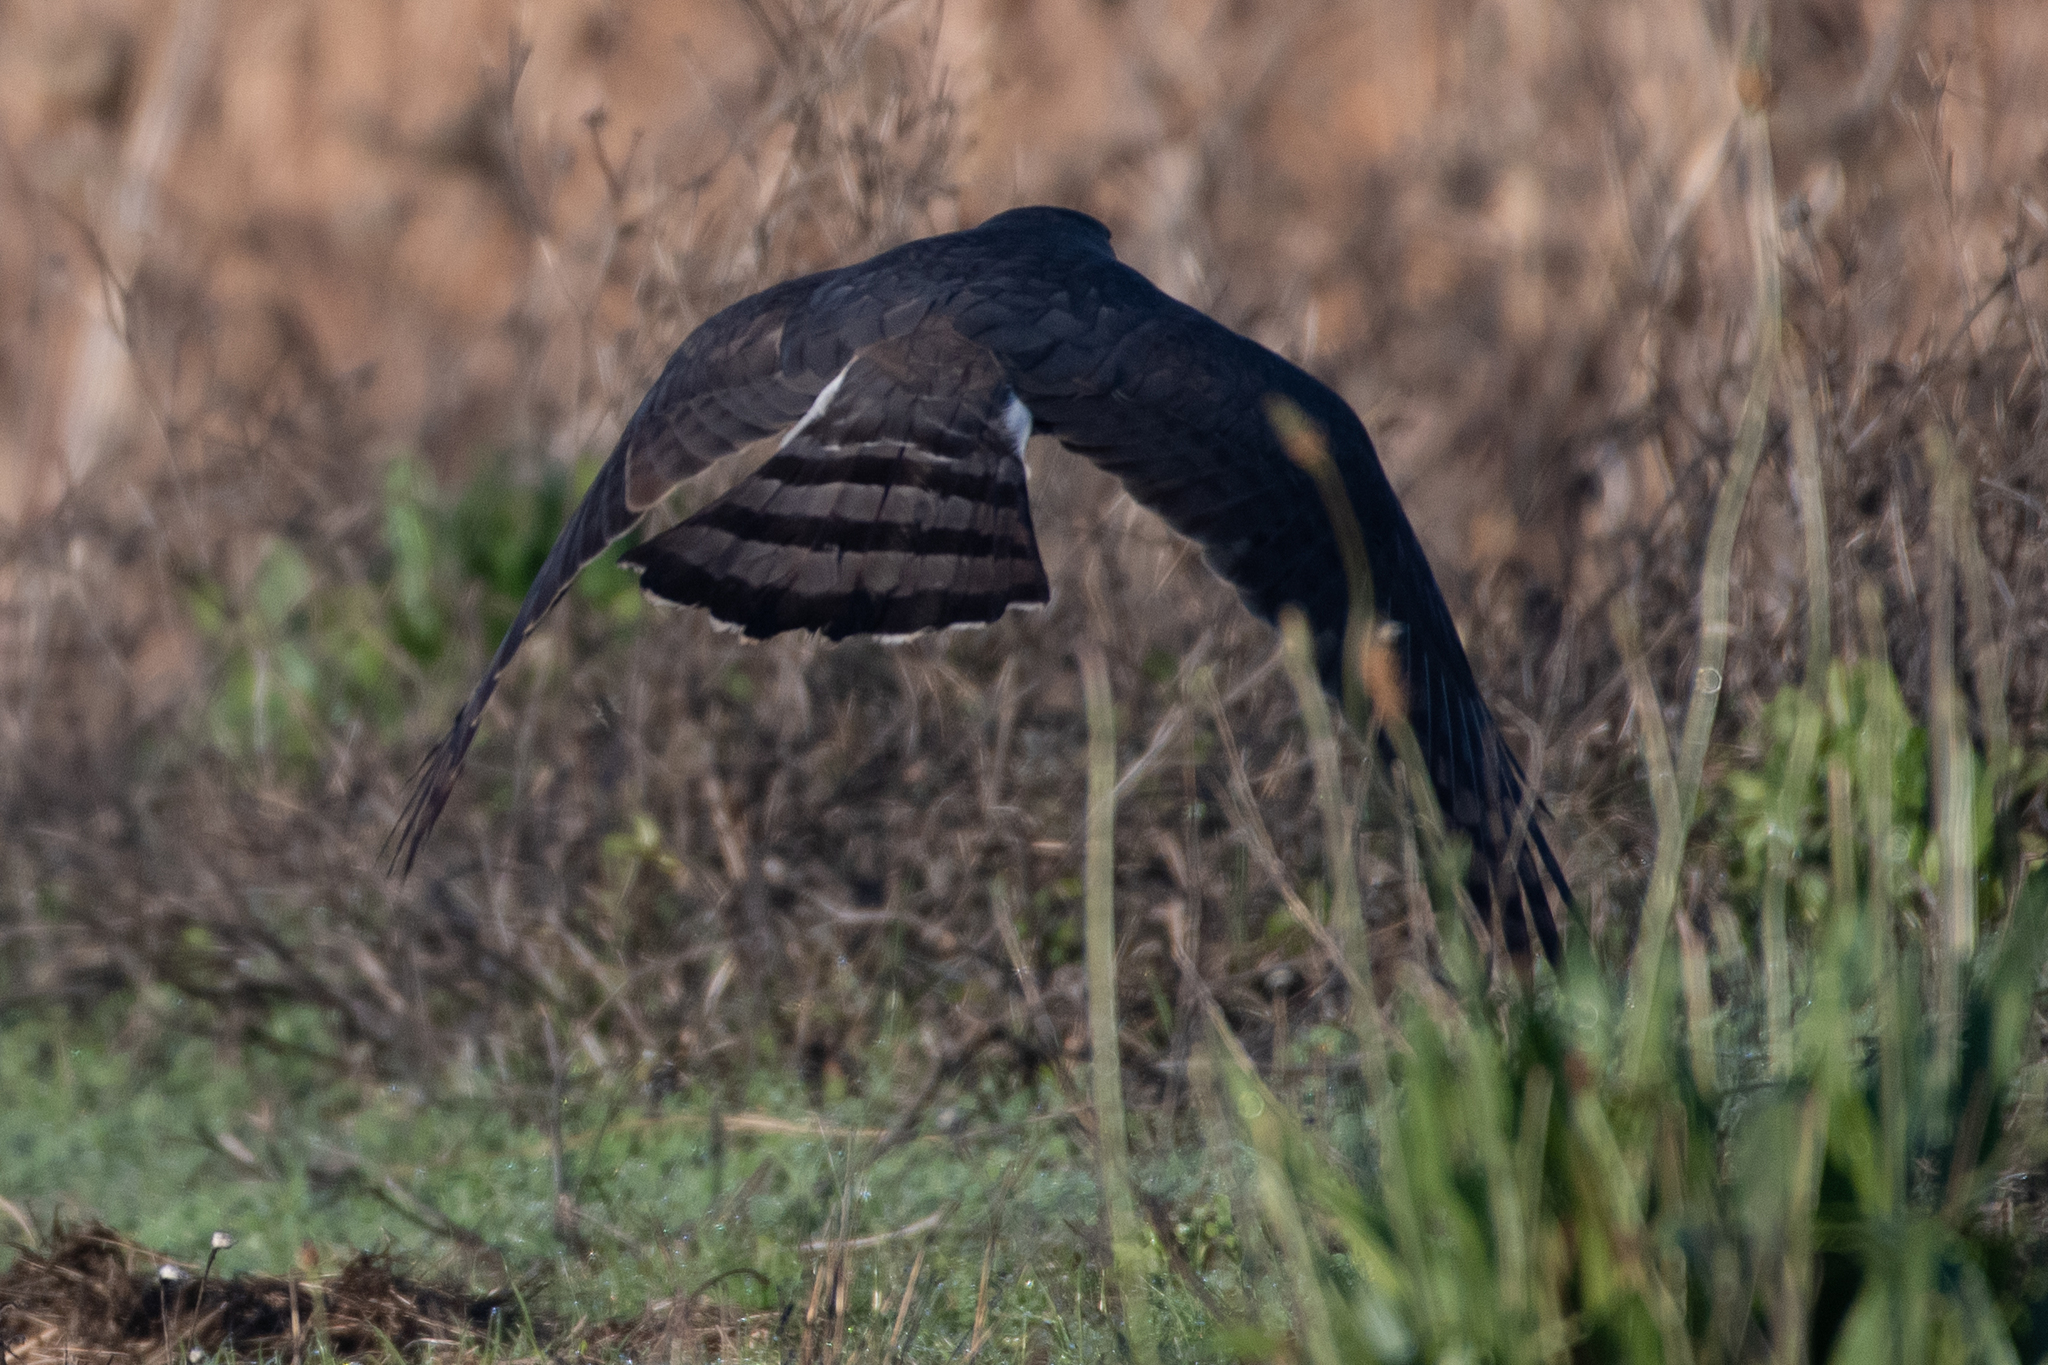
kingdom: Animalia
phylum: Chordata
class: Aves
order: Accipitriformes
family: Accipitridae
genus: Accipiter
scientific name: Accipiter cooperii
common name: Cooper's hawk
